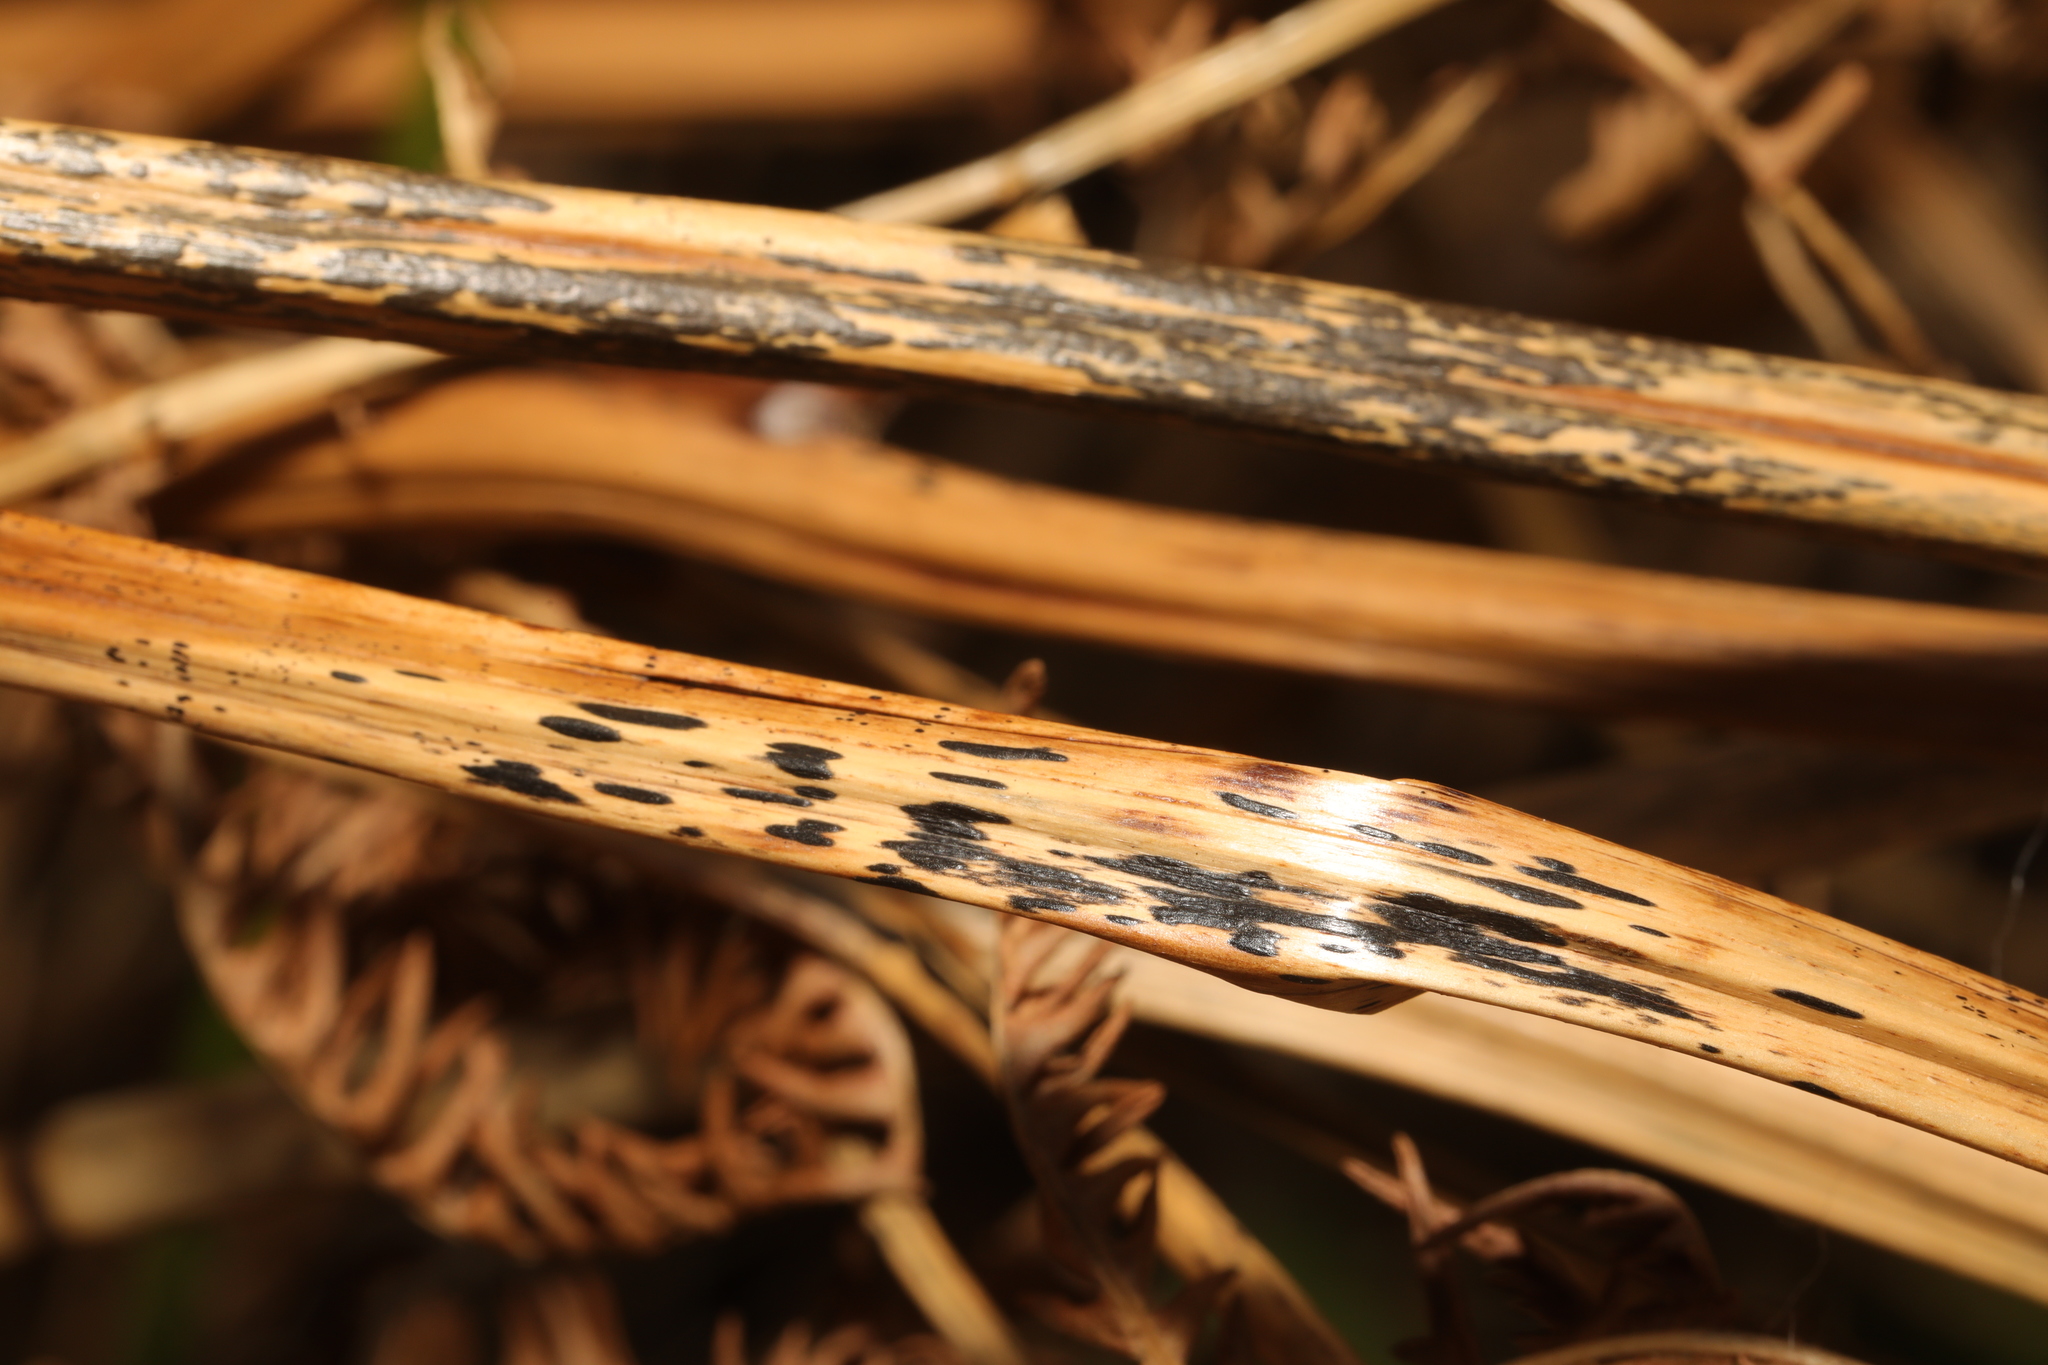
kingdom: Fungi
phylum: Ascomycota
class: Dothideomycetes
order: Pleosporales
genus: Rhopographus
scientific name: Rhopographus filicinus
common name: Bracken map
